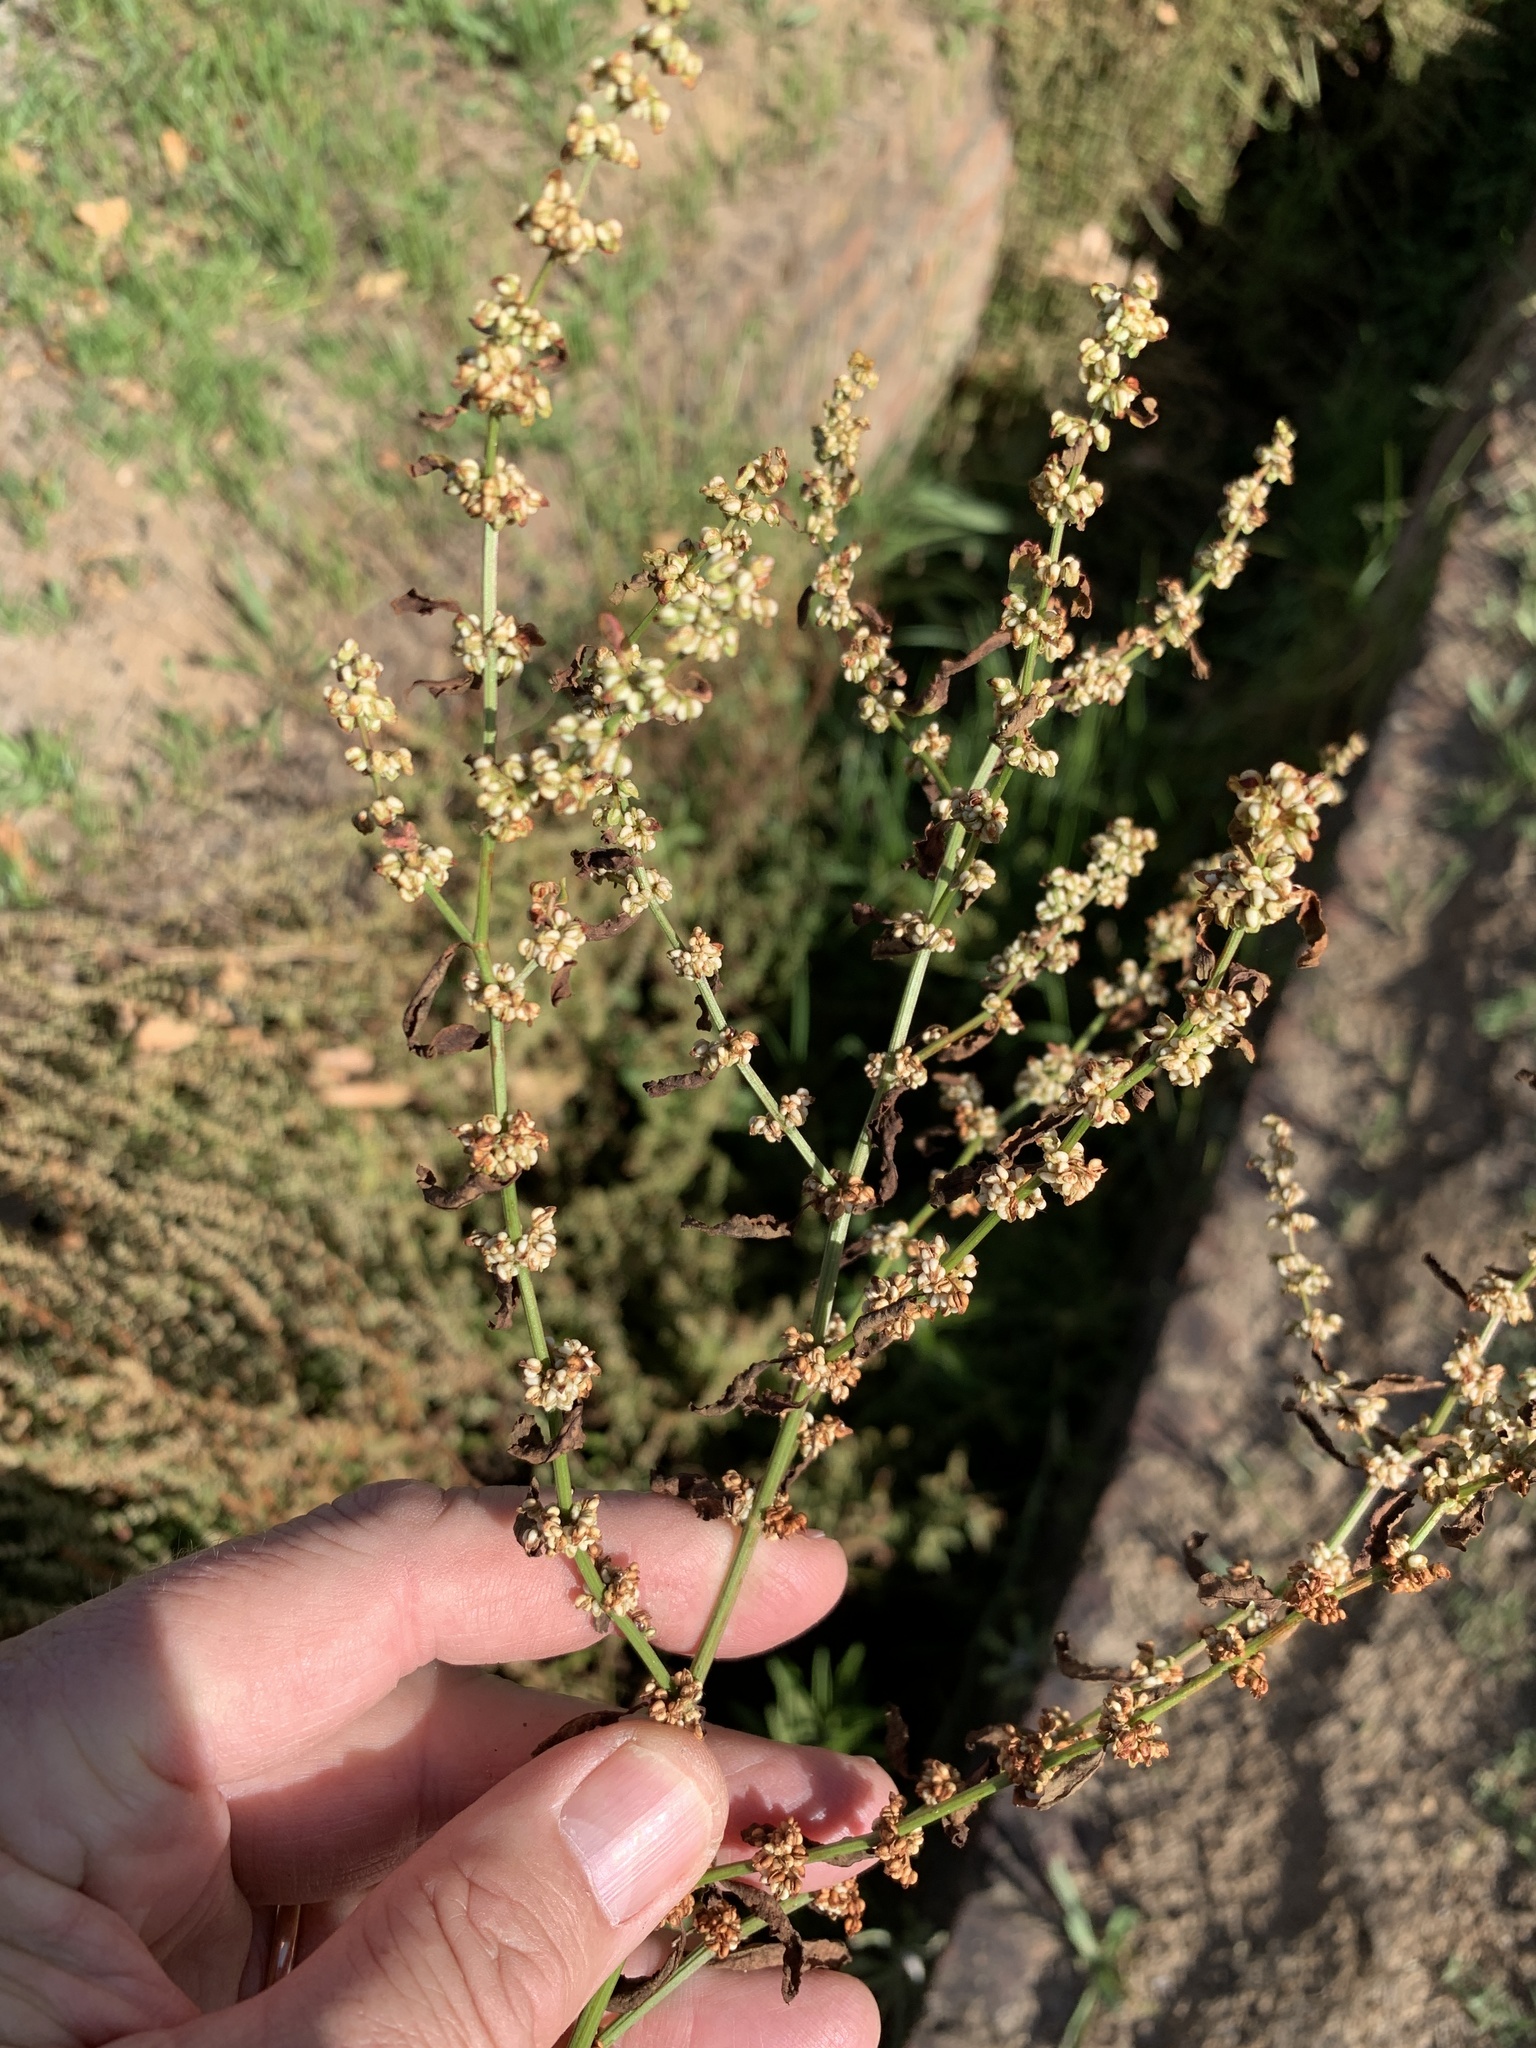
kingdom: Plantae
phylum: Tracheophyta
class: Magnoliopsida
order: Caryophyllales
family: Polygonaceae
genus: Rumex
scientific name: Rumex acetosella
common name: Common sheep sorrel
